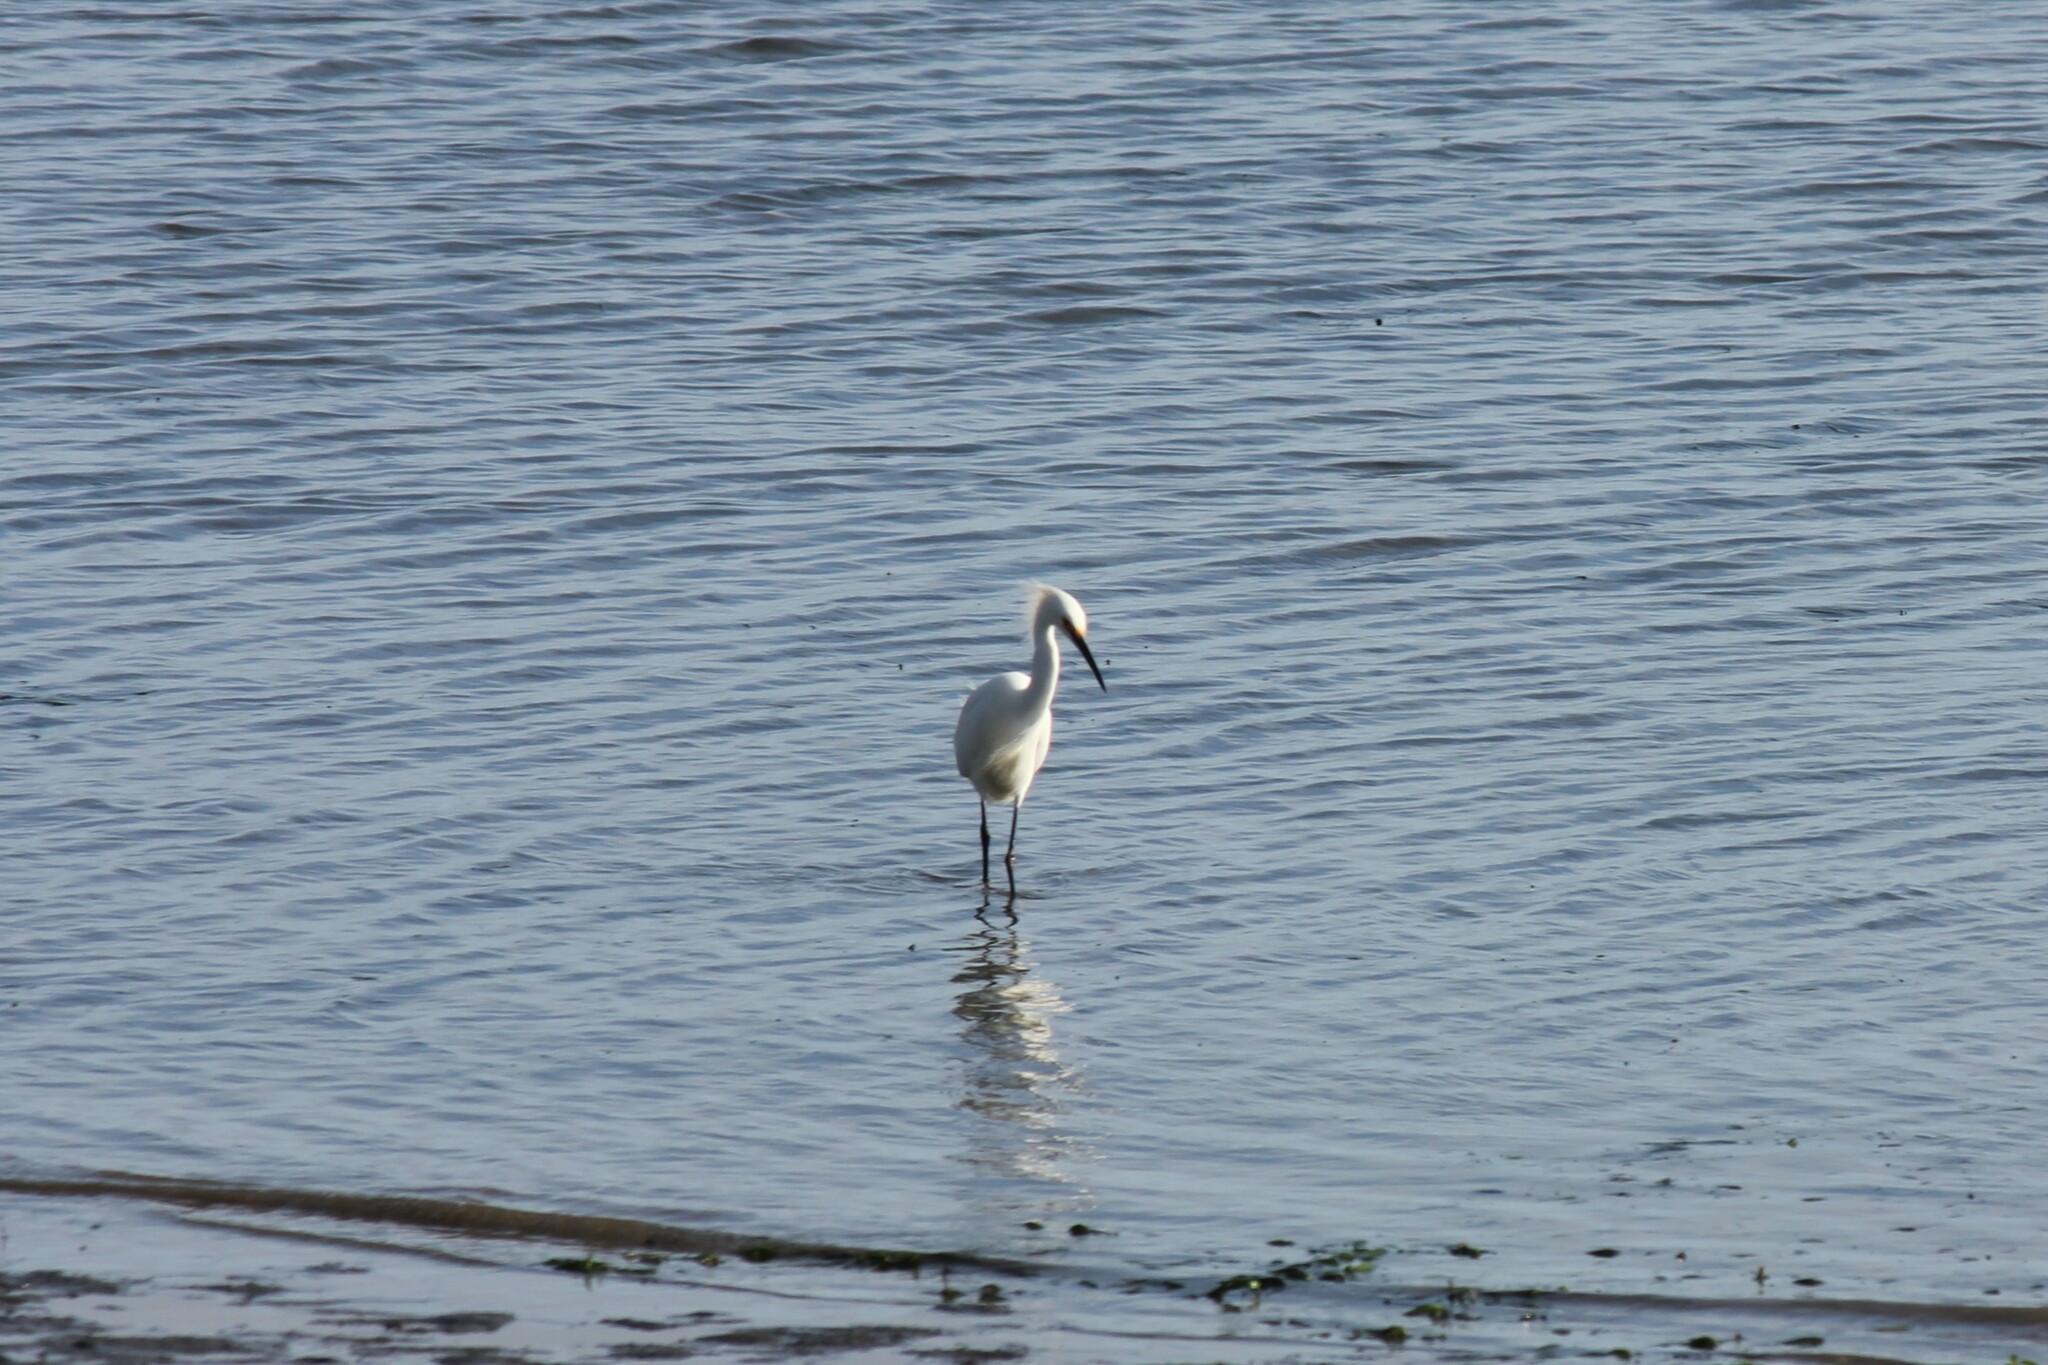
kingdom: Animalia
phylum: Chordata
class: Aves
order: Pelecaniformes
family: Ardeidae
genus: Egretta
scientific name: Egretta thula
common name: Snowy egret
